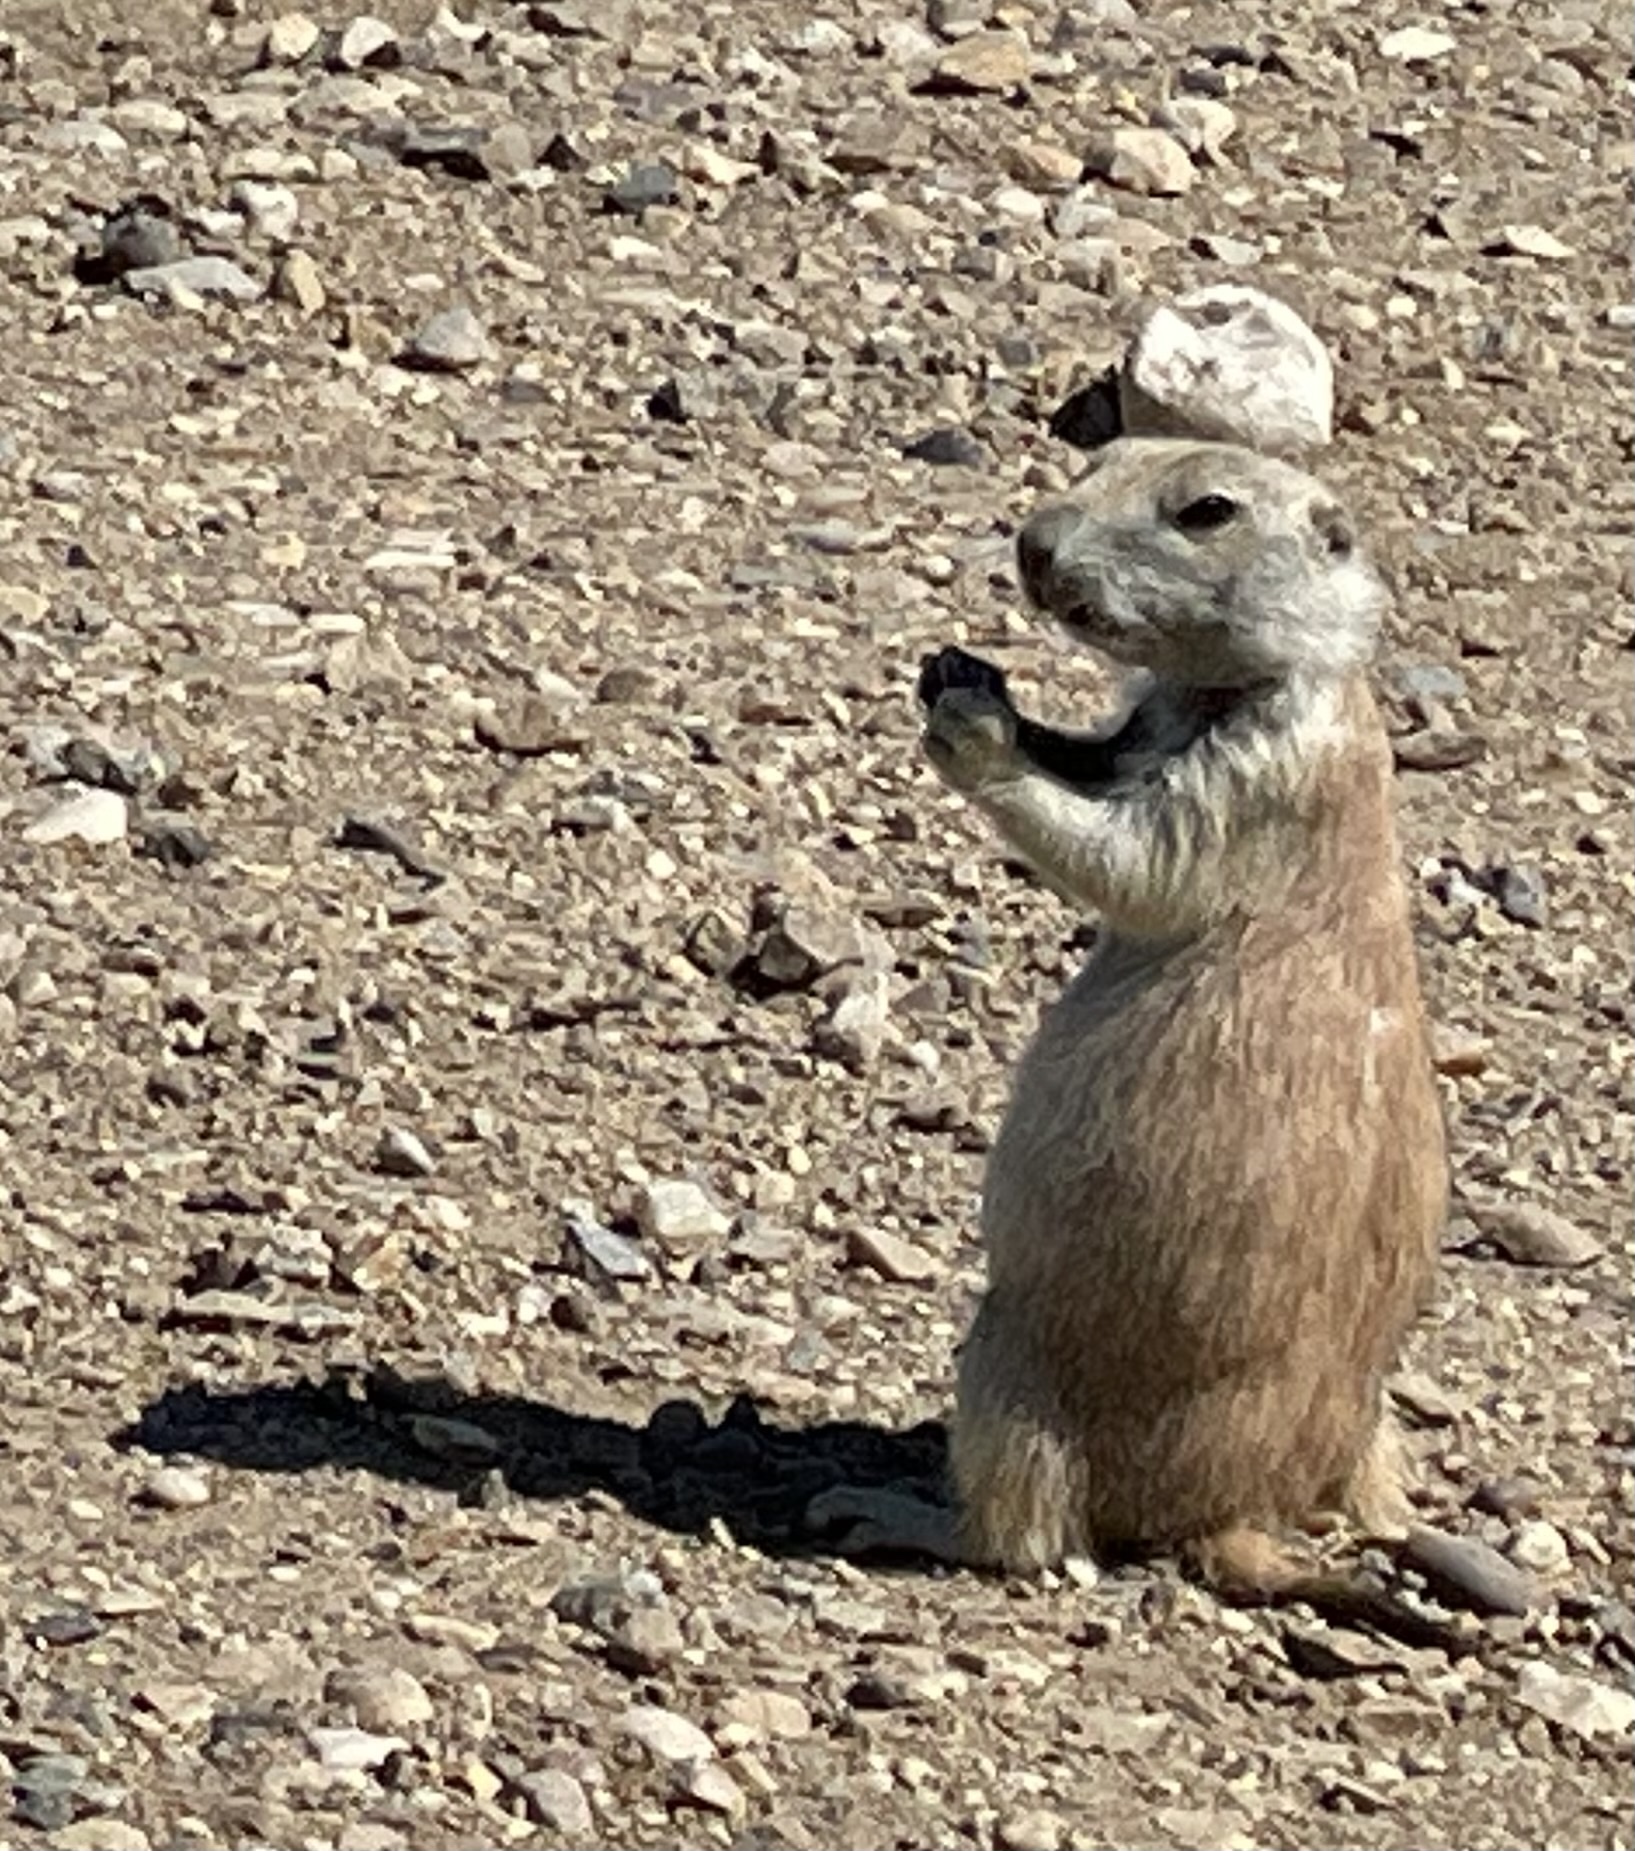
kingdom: Animalia
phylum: Chordata
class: Mammalia
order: Rodentia
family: Sciuridae
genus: Cynomys
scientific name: Cynomys ludovicianus
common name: Black-tailed prairie dog
